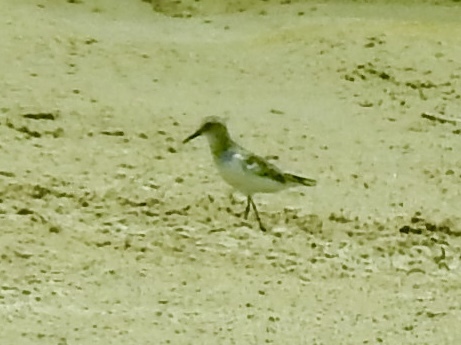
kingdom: Animalia
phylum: Chordata
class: Aves
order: Charadriiformes
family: Scolopacidae
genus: Calidris
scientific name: Calidris bairdii
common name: Baird's sandpiper
